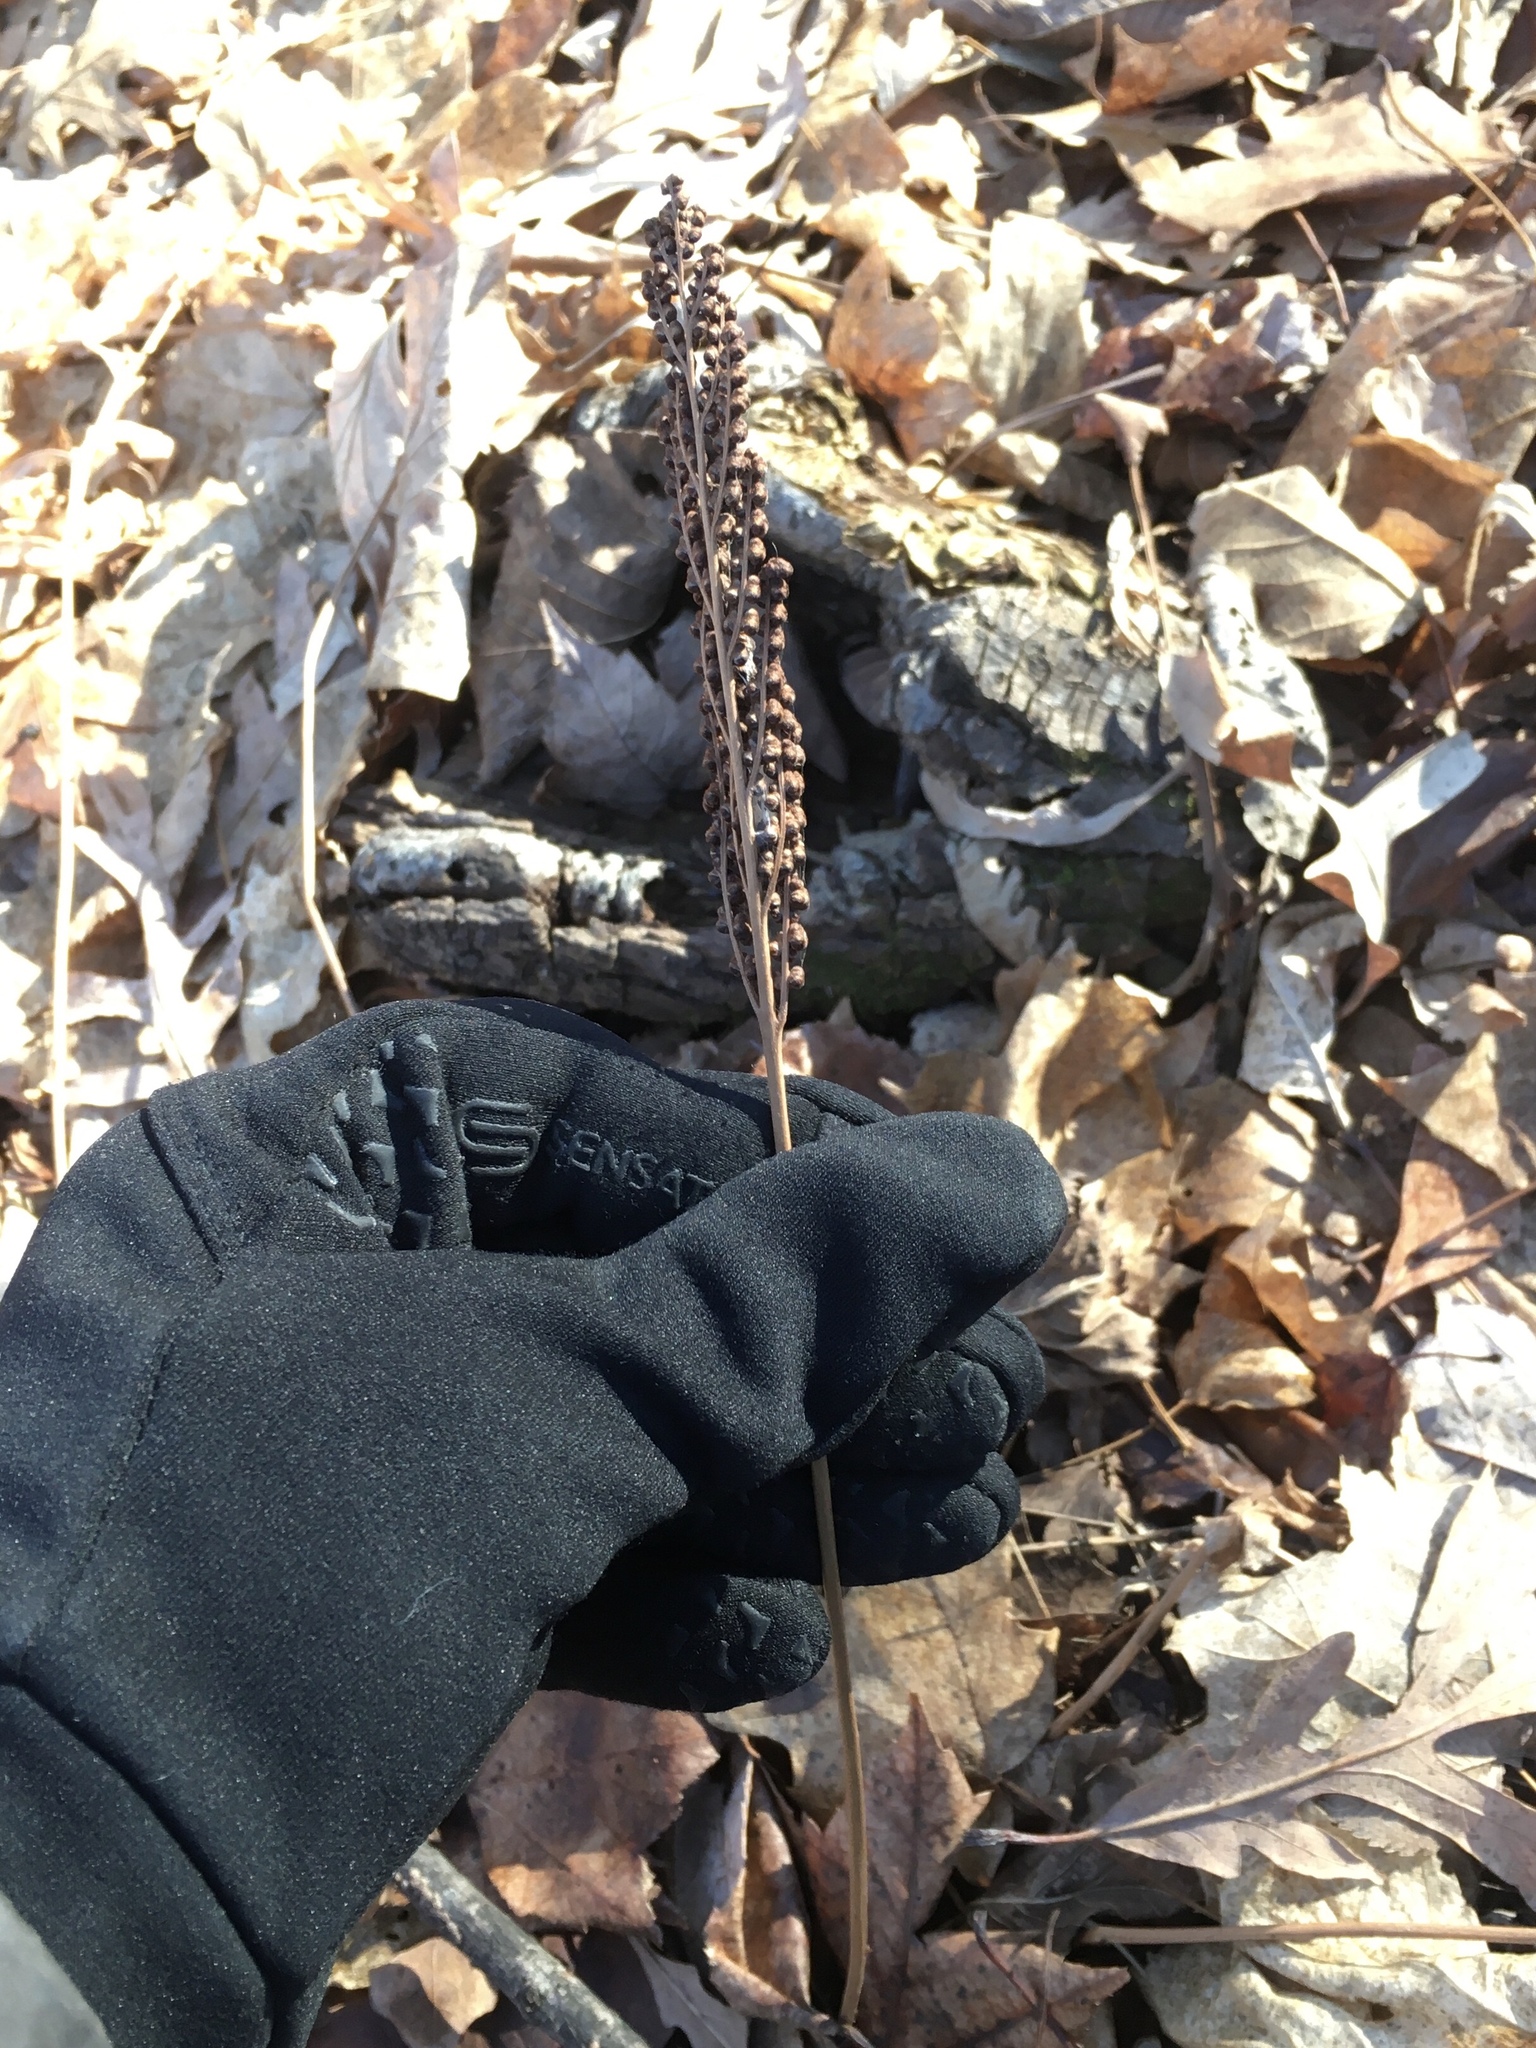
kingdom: Plantae
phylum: Tracheophyta
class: Polypodiopsida
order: Polypodiales
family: Onocleaceae
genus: Onoclea
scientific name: Onoclea sensibilis
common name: Sensitive fern
